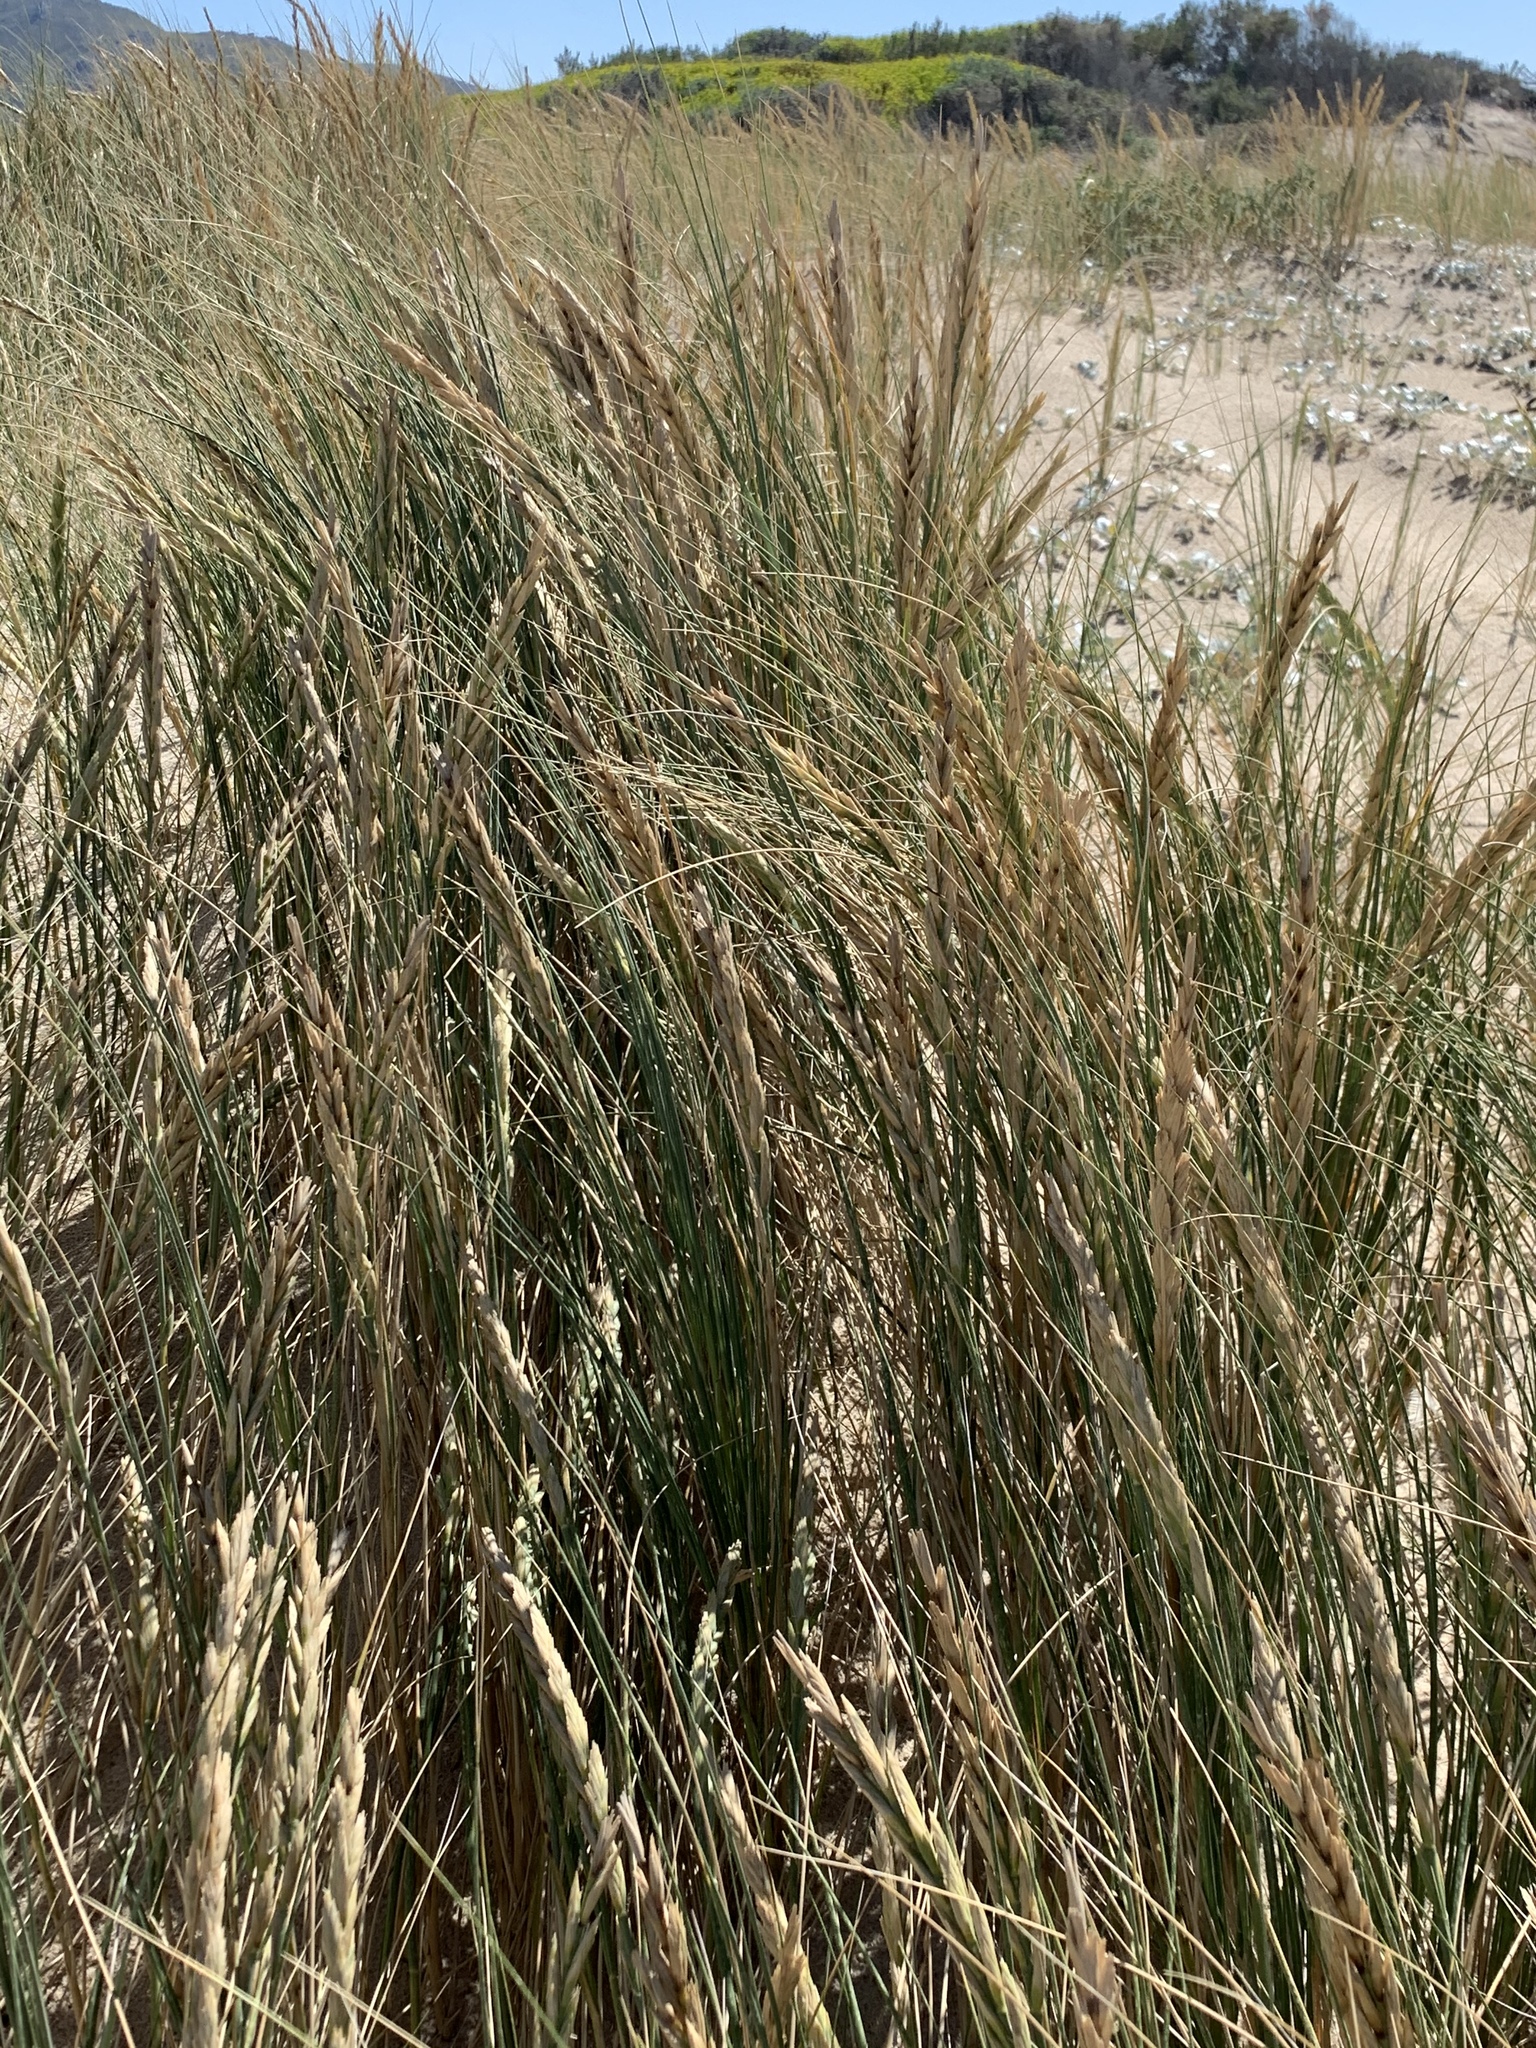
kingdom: Plantae
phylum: Tracheophyta
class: Liliopsida
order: Poales
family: Poaceae
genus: Thinopyrum
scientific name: Thinopyrum distichum
